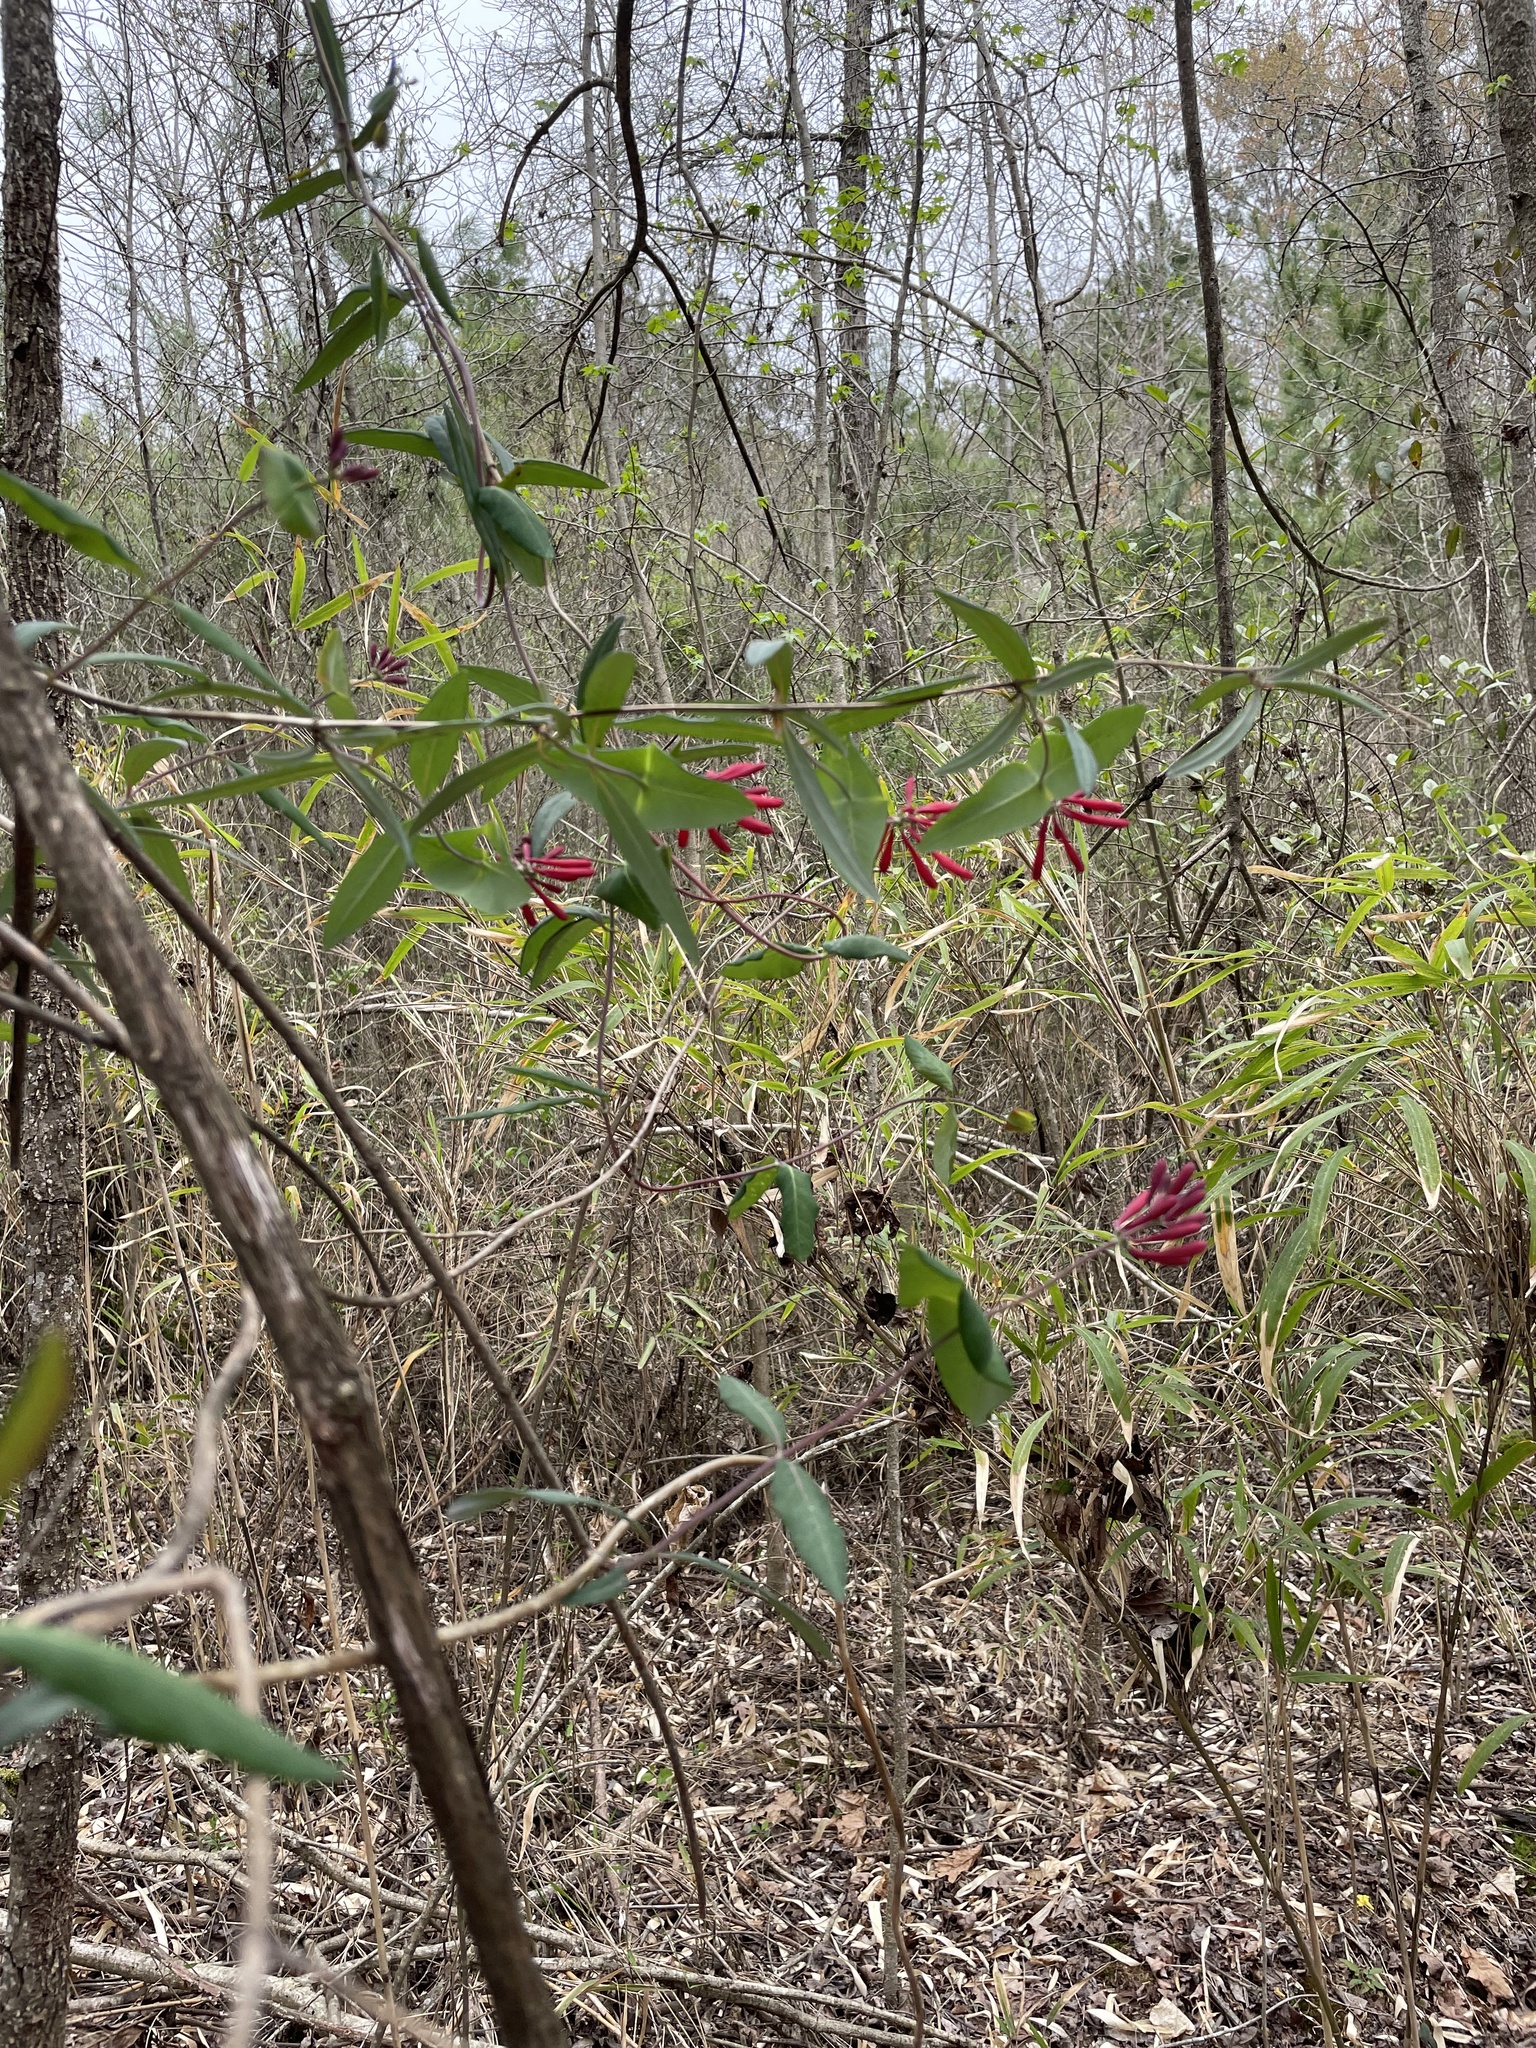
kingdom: Plantae
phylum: Tracheophyta
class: Magnoliopsida
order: Dipsacales
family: Caprifoliaceae
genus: Lonicera
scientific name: Lonicera sempervirens
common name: Coral honeysuckle
